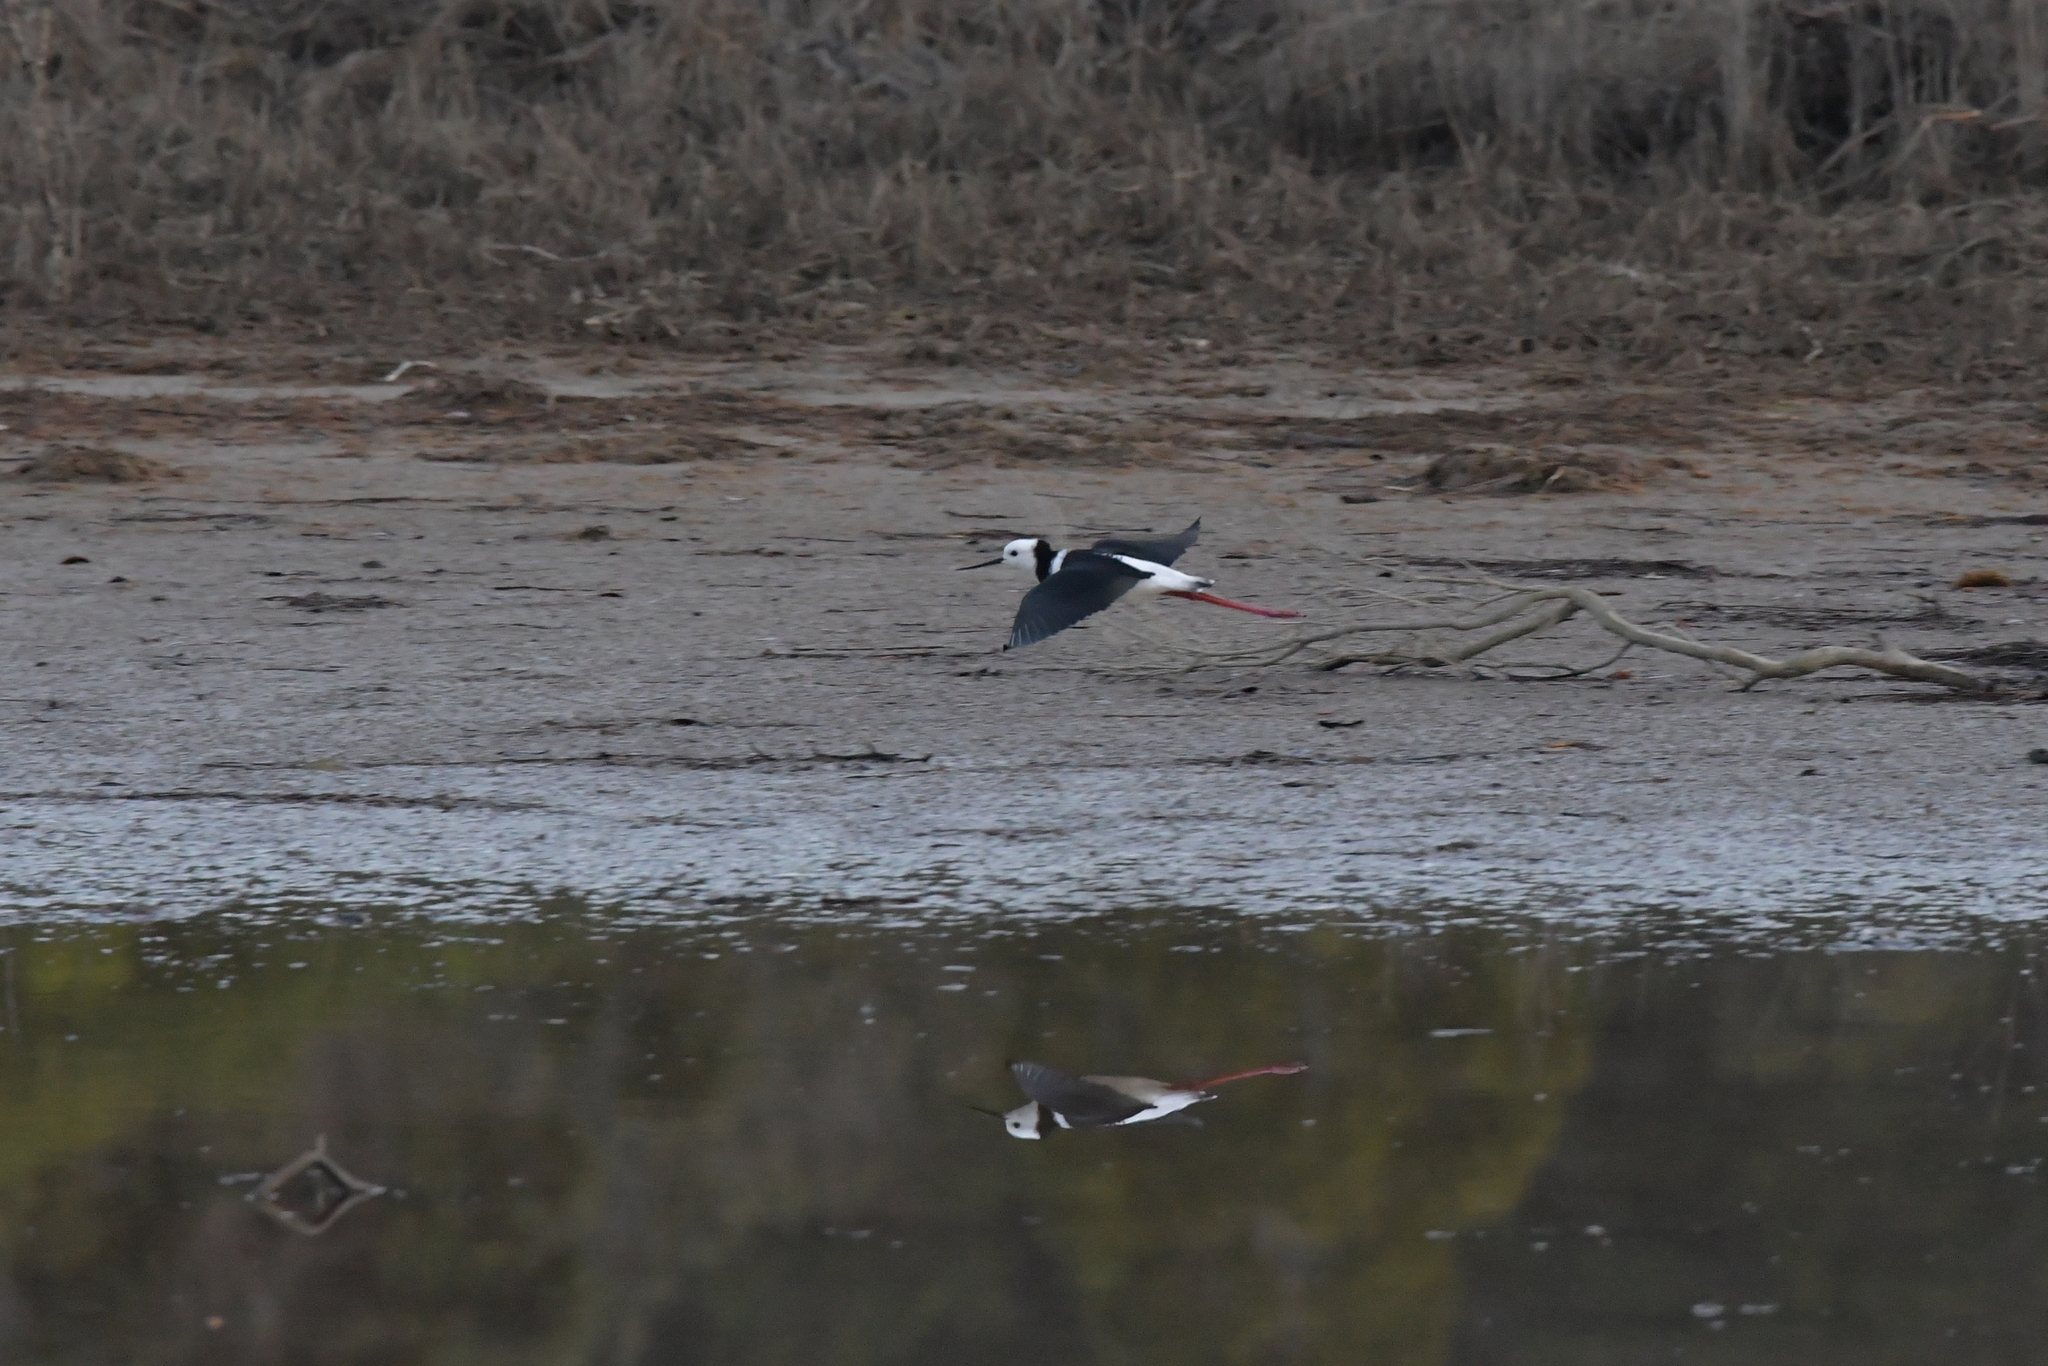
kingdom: Animalia
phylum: Chordata
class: Aves
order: Charadriiformes
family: Recurvirostridae
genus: Himantopus
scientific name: Himantopus leucocephalus
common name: White-headed stilt
